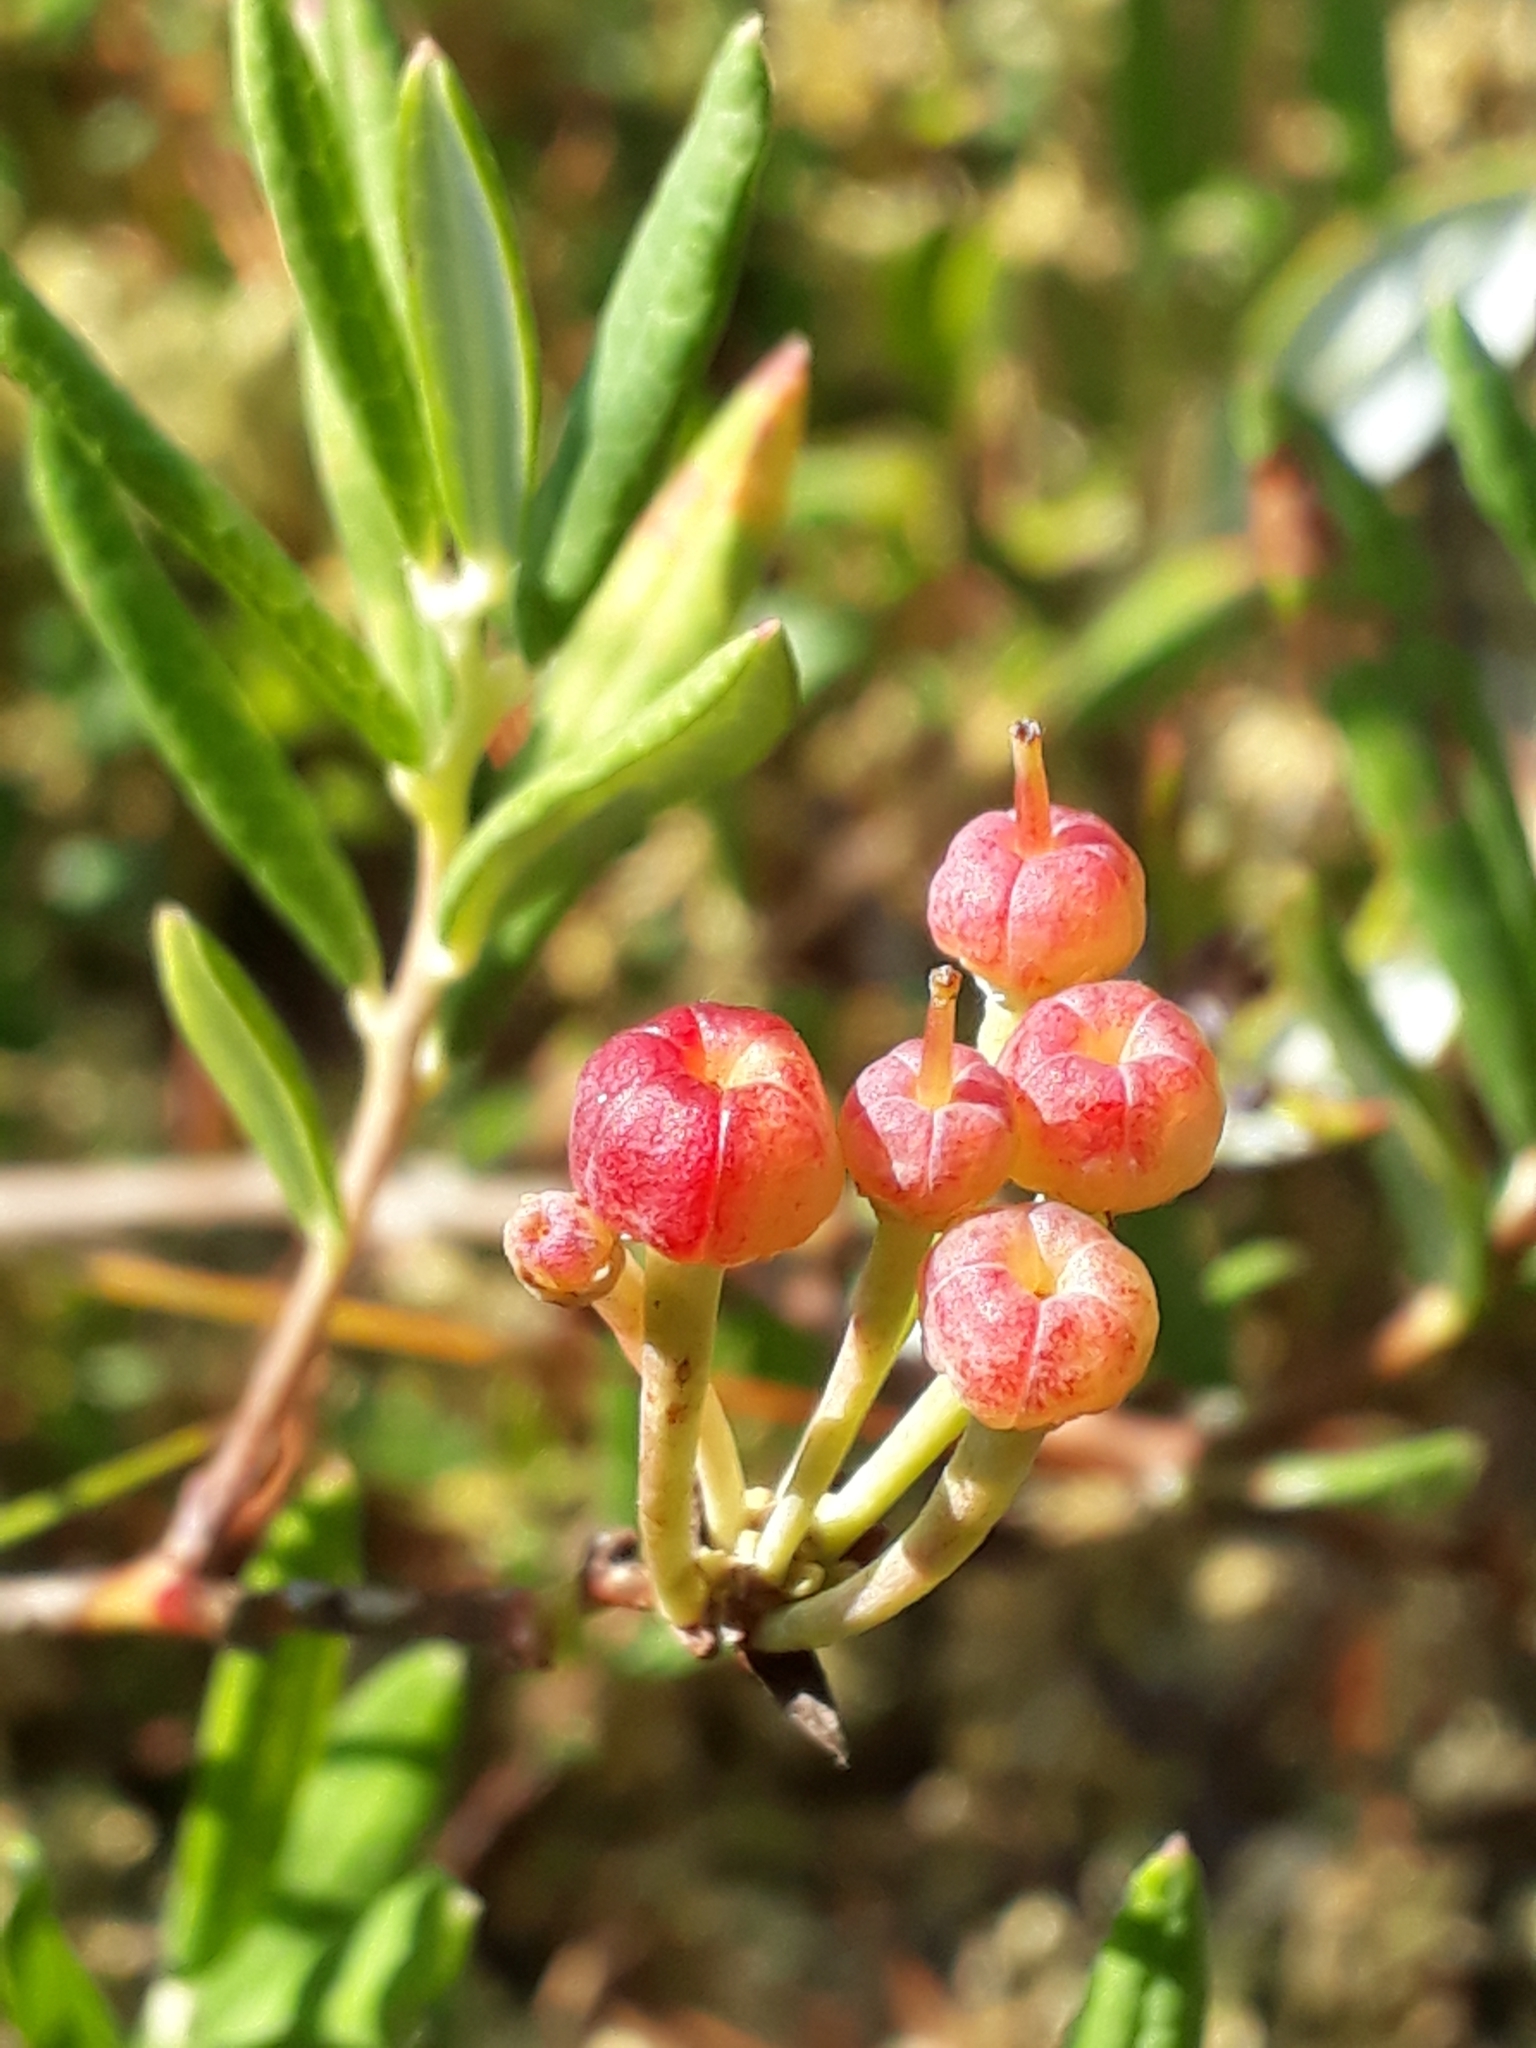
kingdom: Plantae
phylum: Tracheophyta
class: Magnoliopsida
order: Ericales
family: Ericaceae
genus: Andromeda
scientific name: Andromeda polifolia
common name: Bog-rosemary
